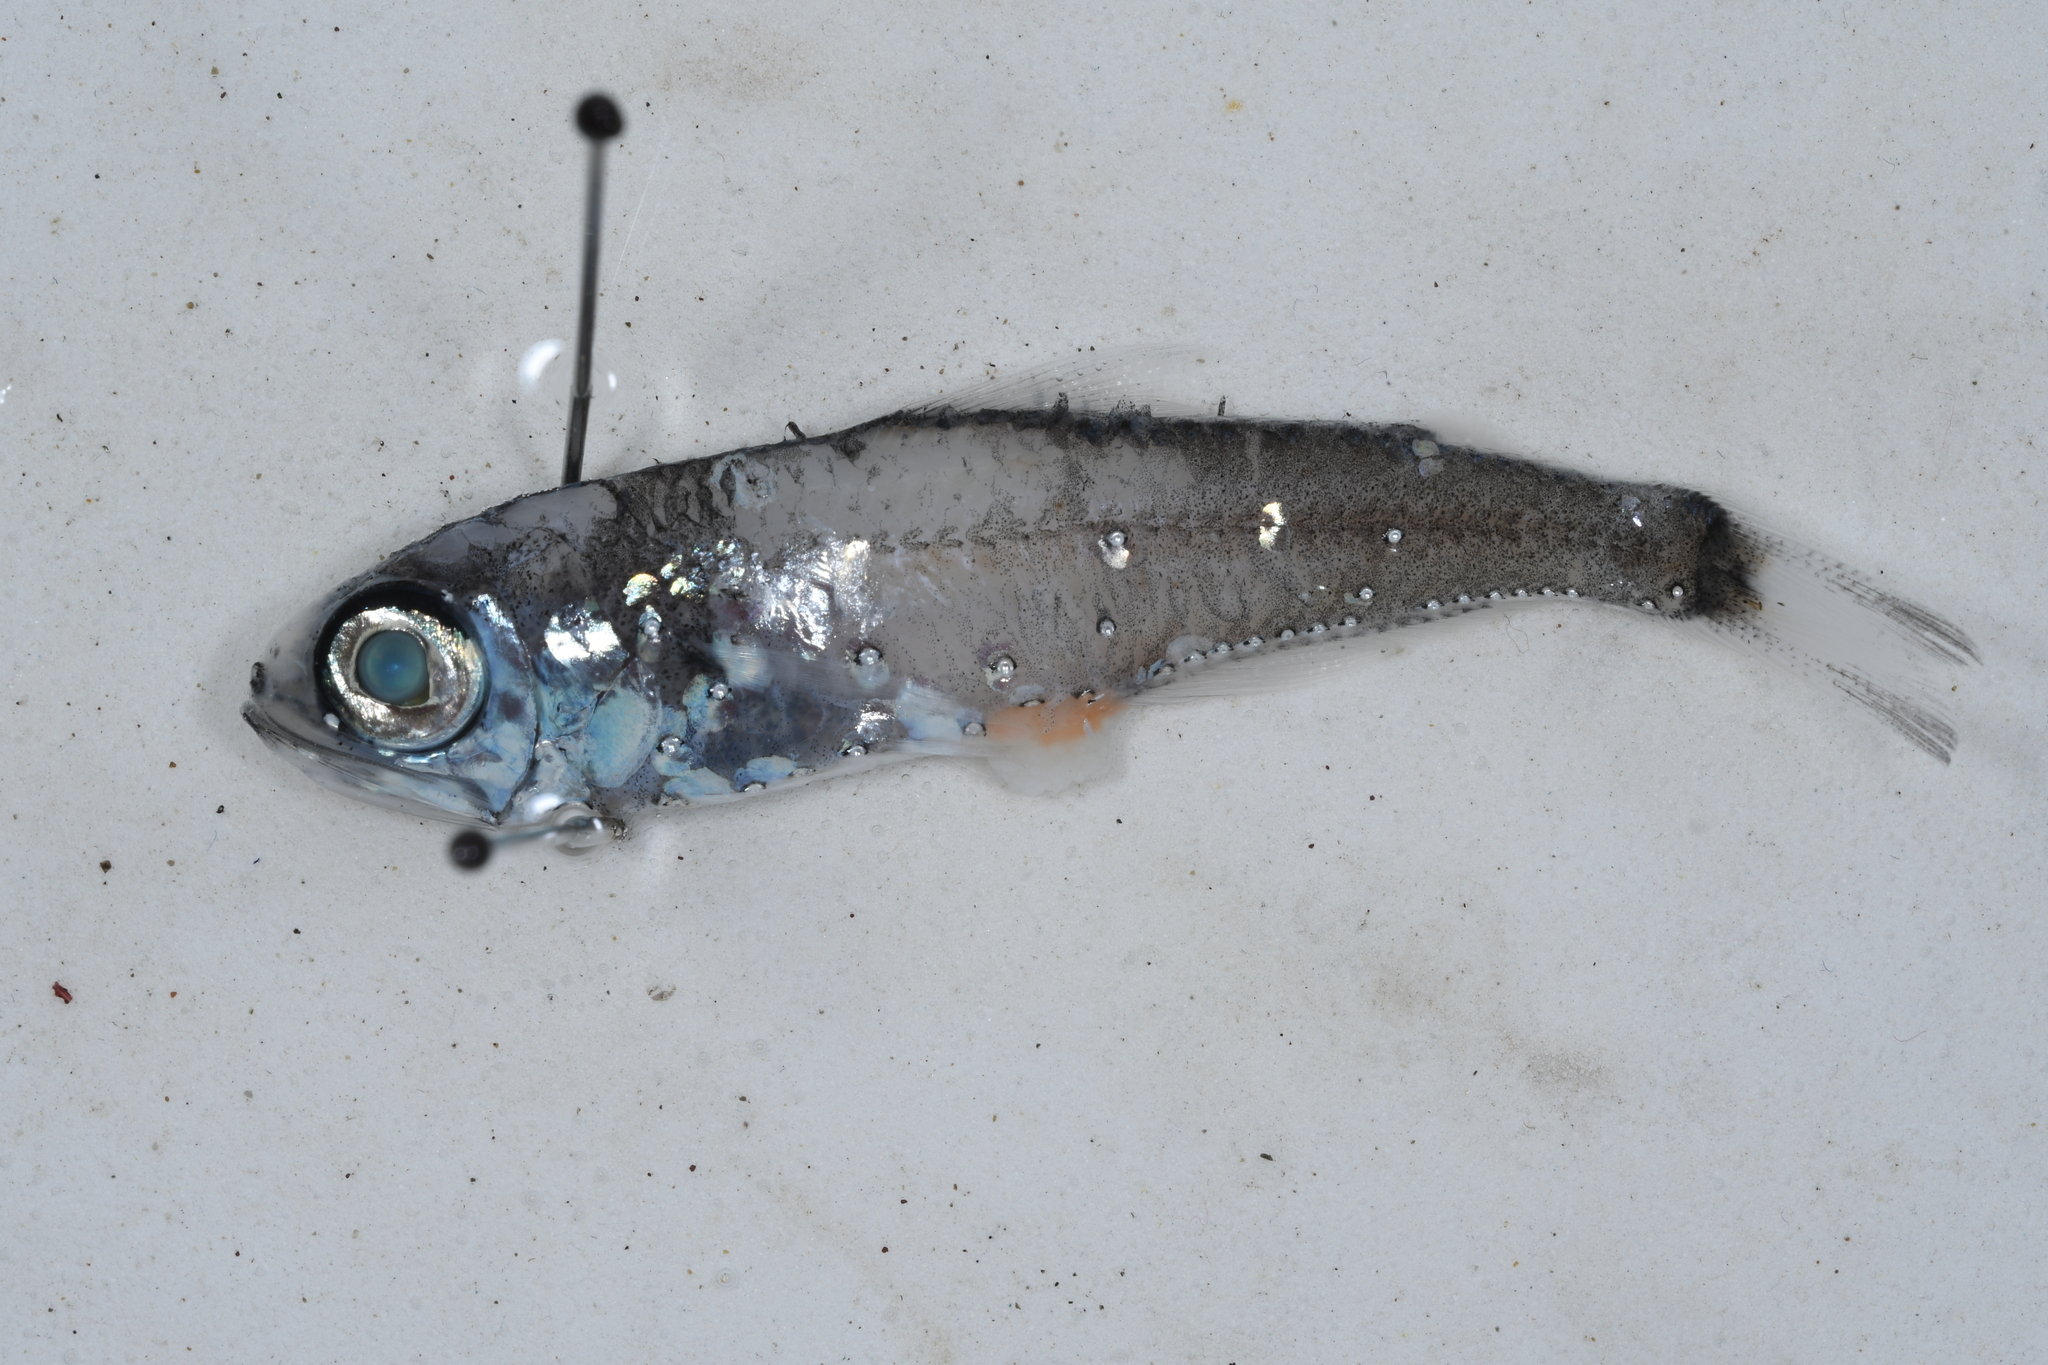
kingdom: Animalia
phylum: Chordata
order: Myctophiformes
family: Myctophidae
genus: Hygophum
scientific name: Hygophum benoiti
